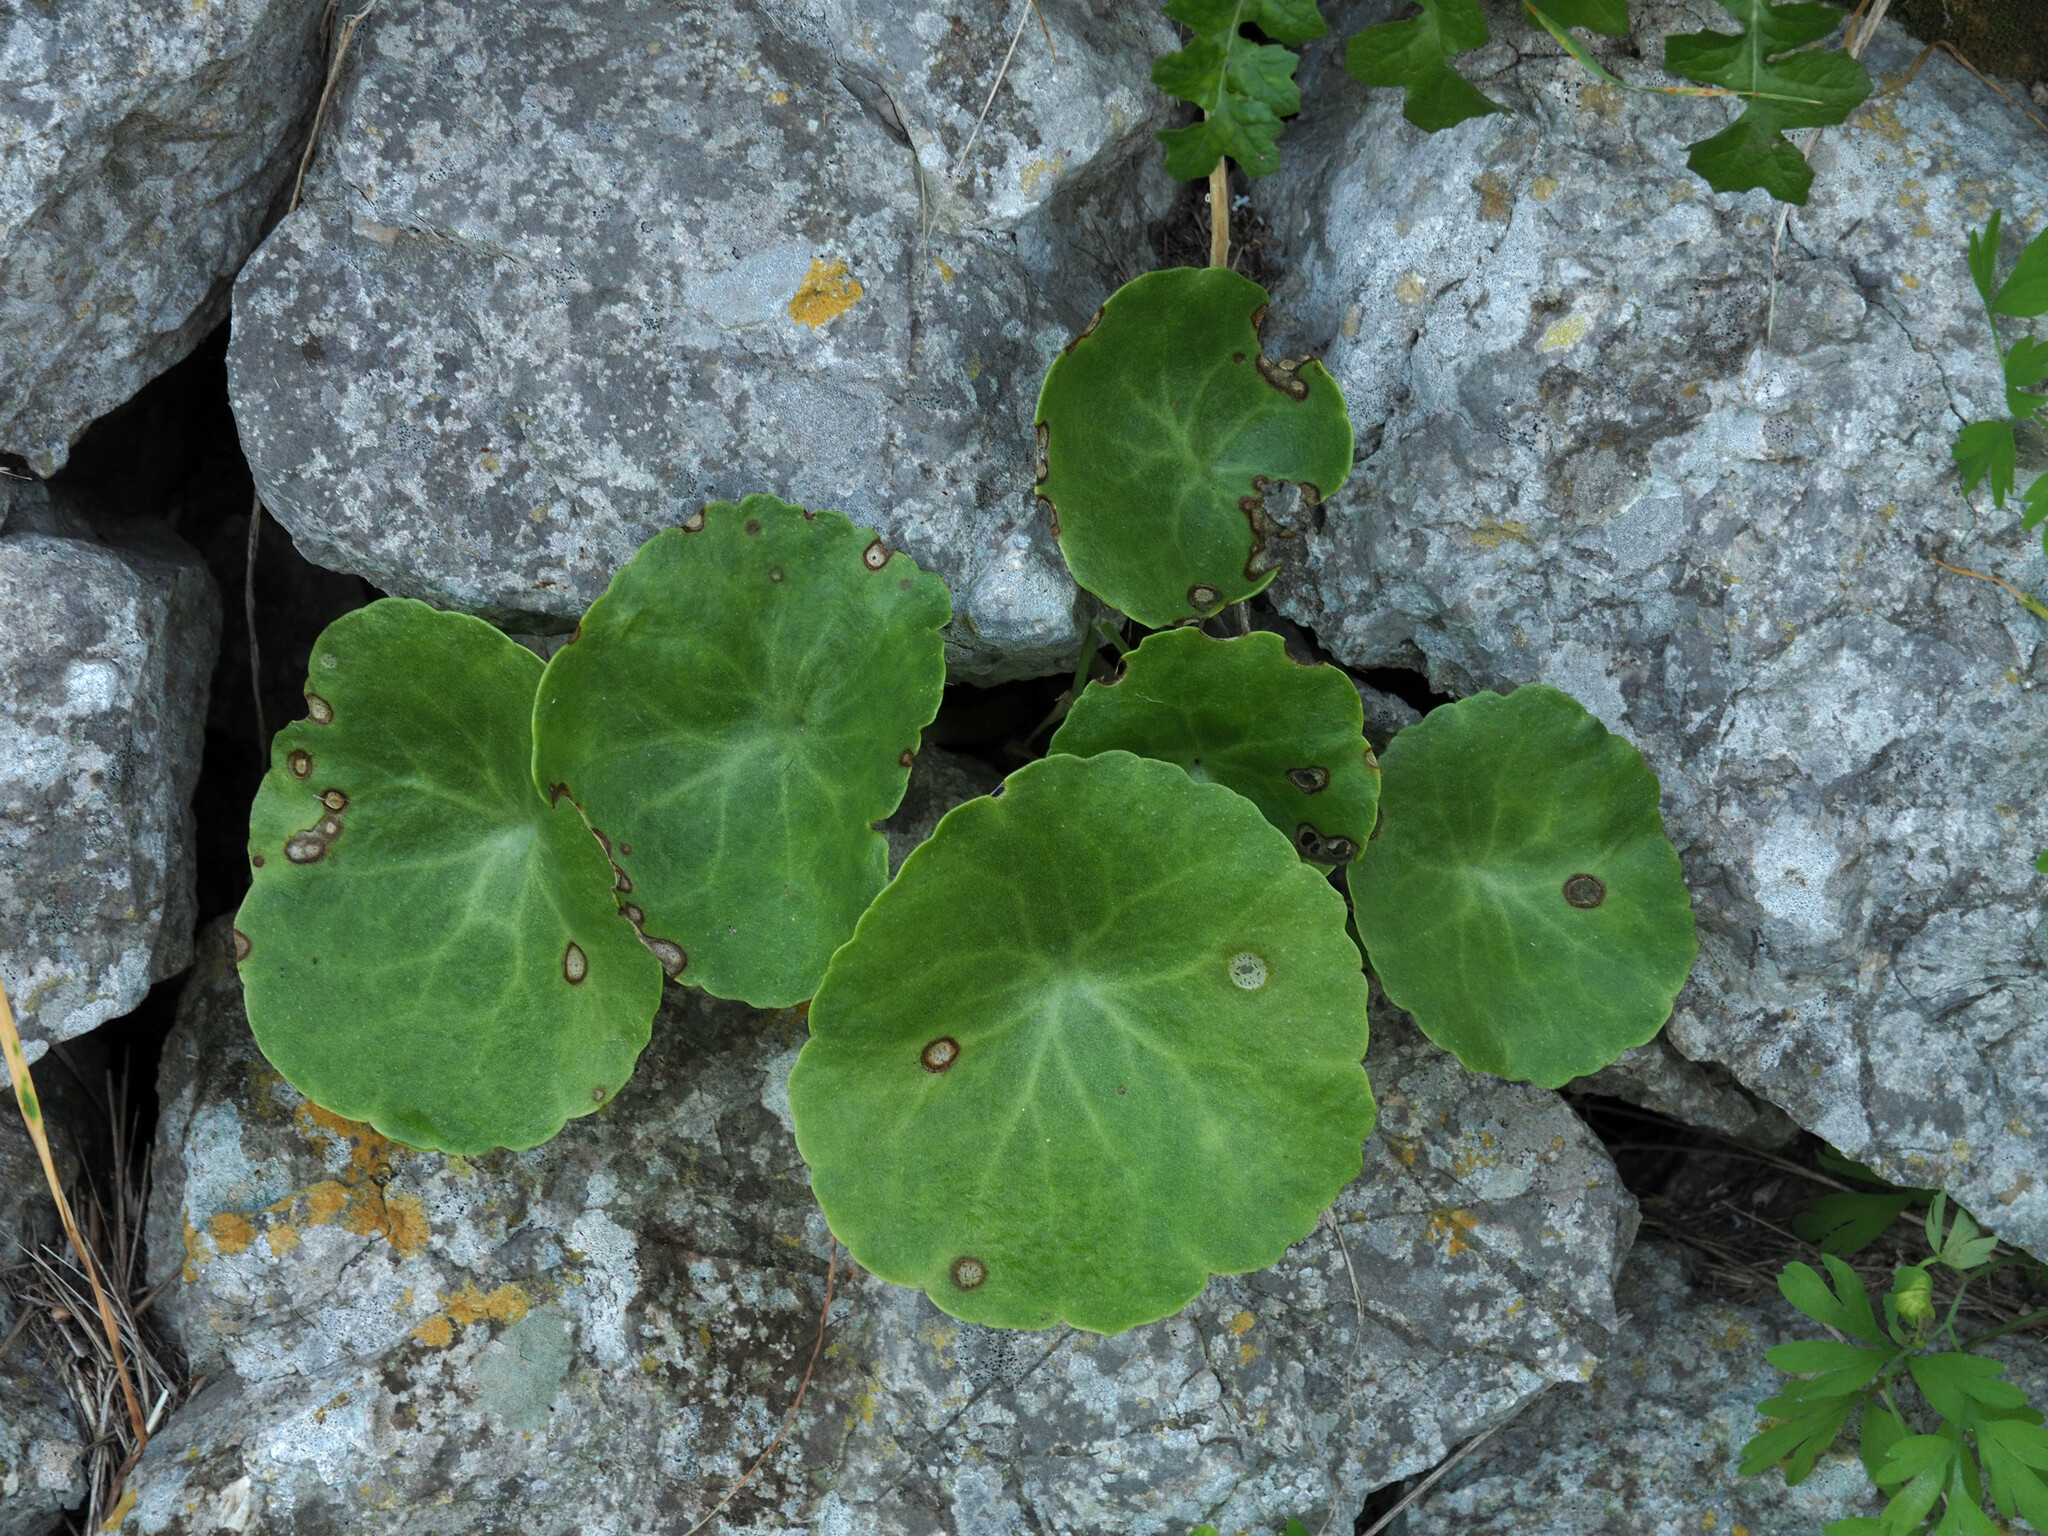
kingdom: Plantae
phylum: Tracheophyta
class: Magnoliopsida
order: Saxifragales
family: Crassulaceae
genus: Umbilicus
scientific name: Umbilicus rupestris
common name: Navelwort
